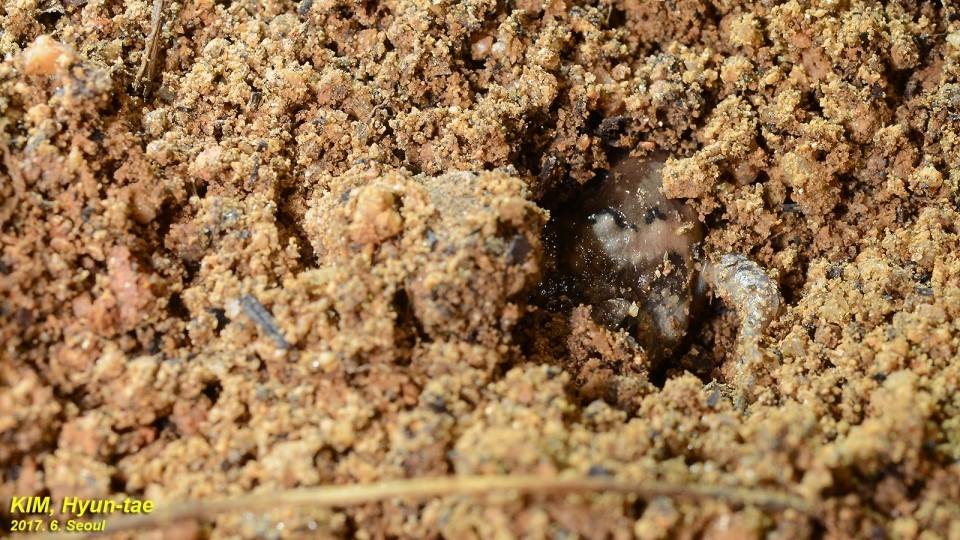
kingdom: Animalia
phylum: Chordata
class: Amphibia
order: Anura
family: Microhylidae
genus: Kaloula
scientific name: Kaloula borealis
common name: Boreal digging frog
